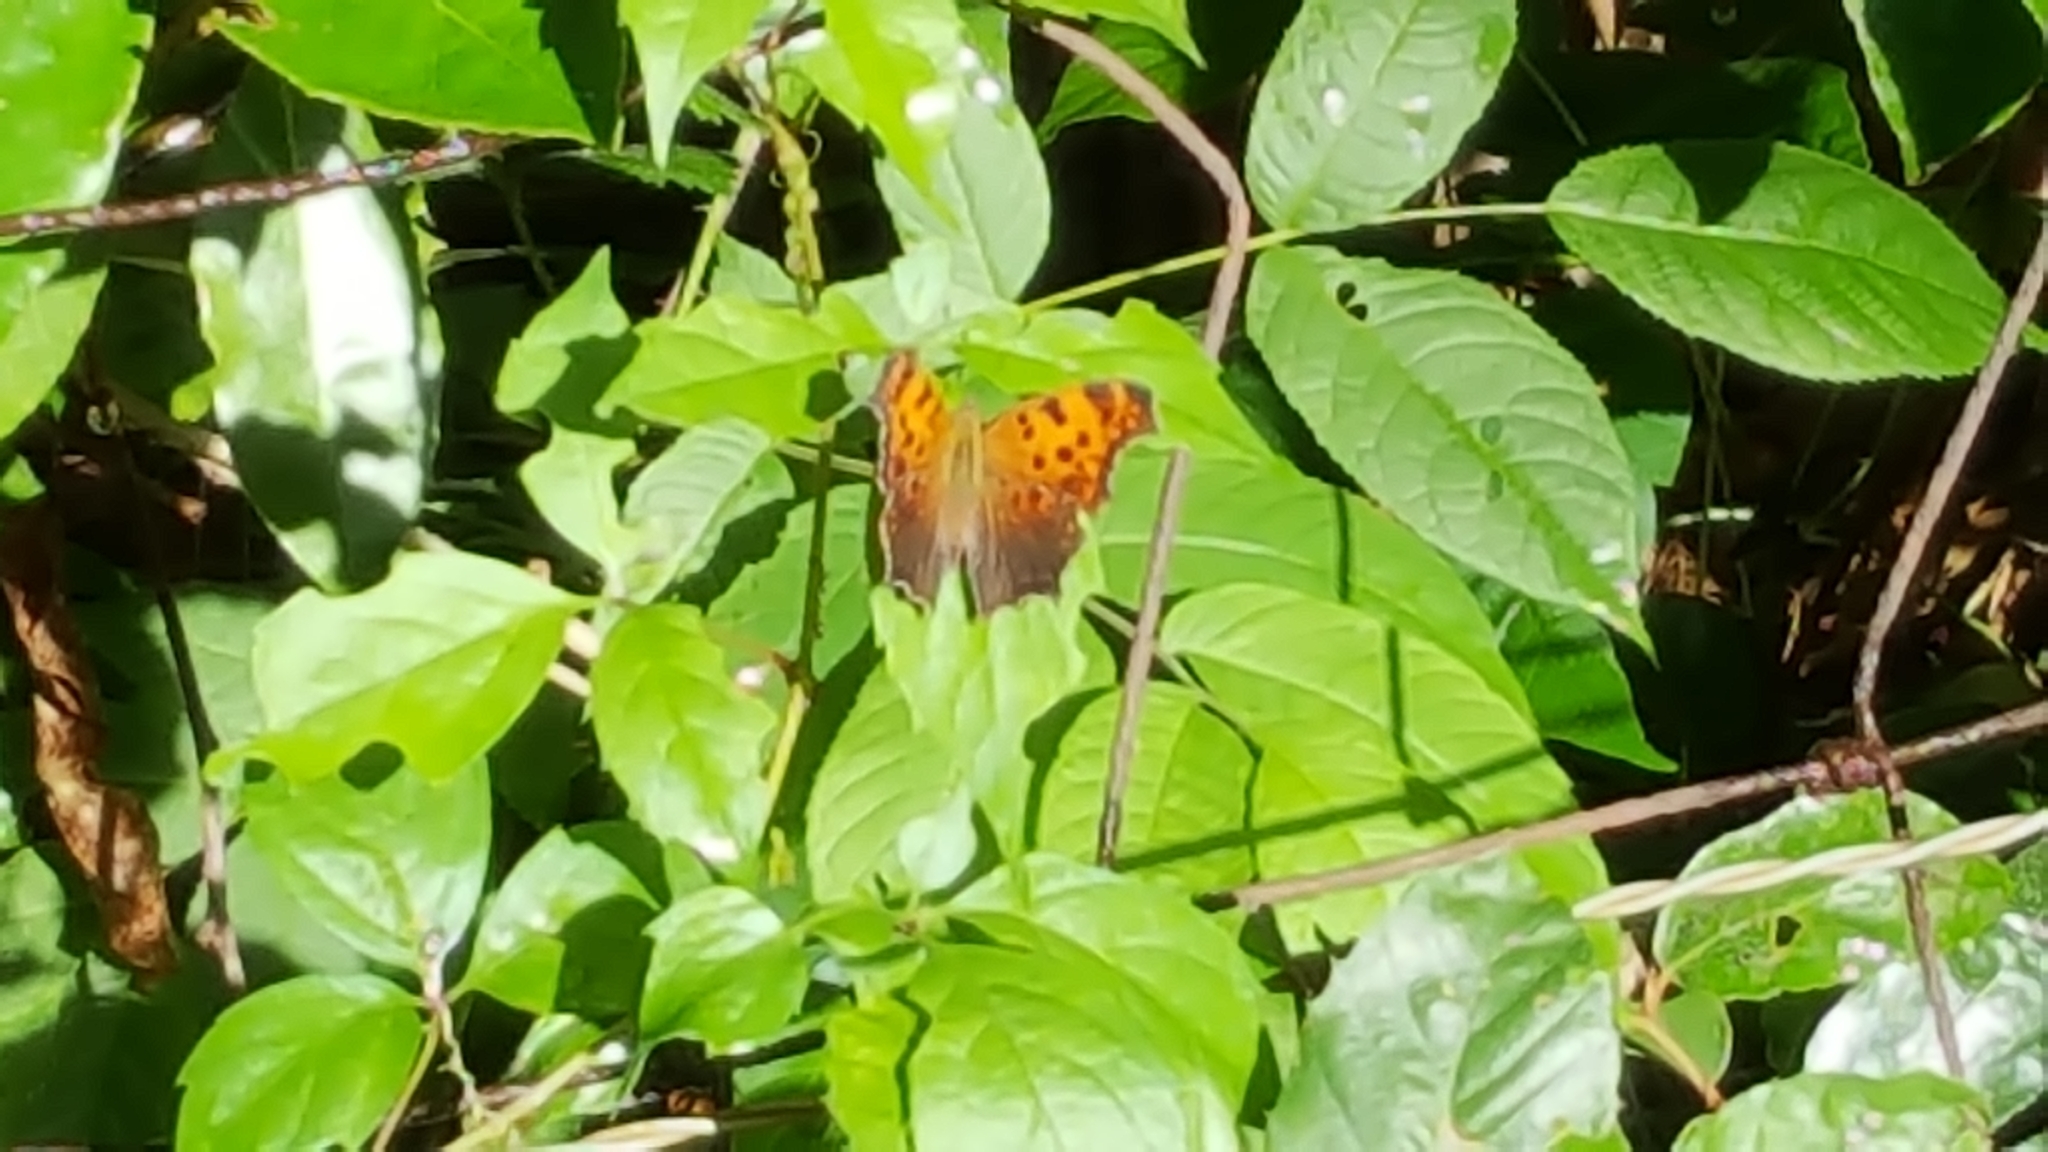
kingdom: Animalia
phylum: Arthropoda
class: Insecta
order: Lepidoptera
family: Nymphalidae
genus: Polygonia
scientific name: Polygonia comma
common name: Eastern comma
